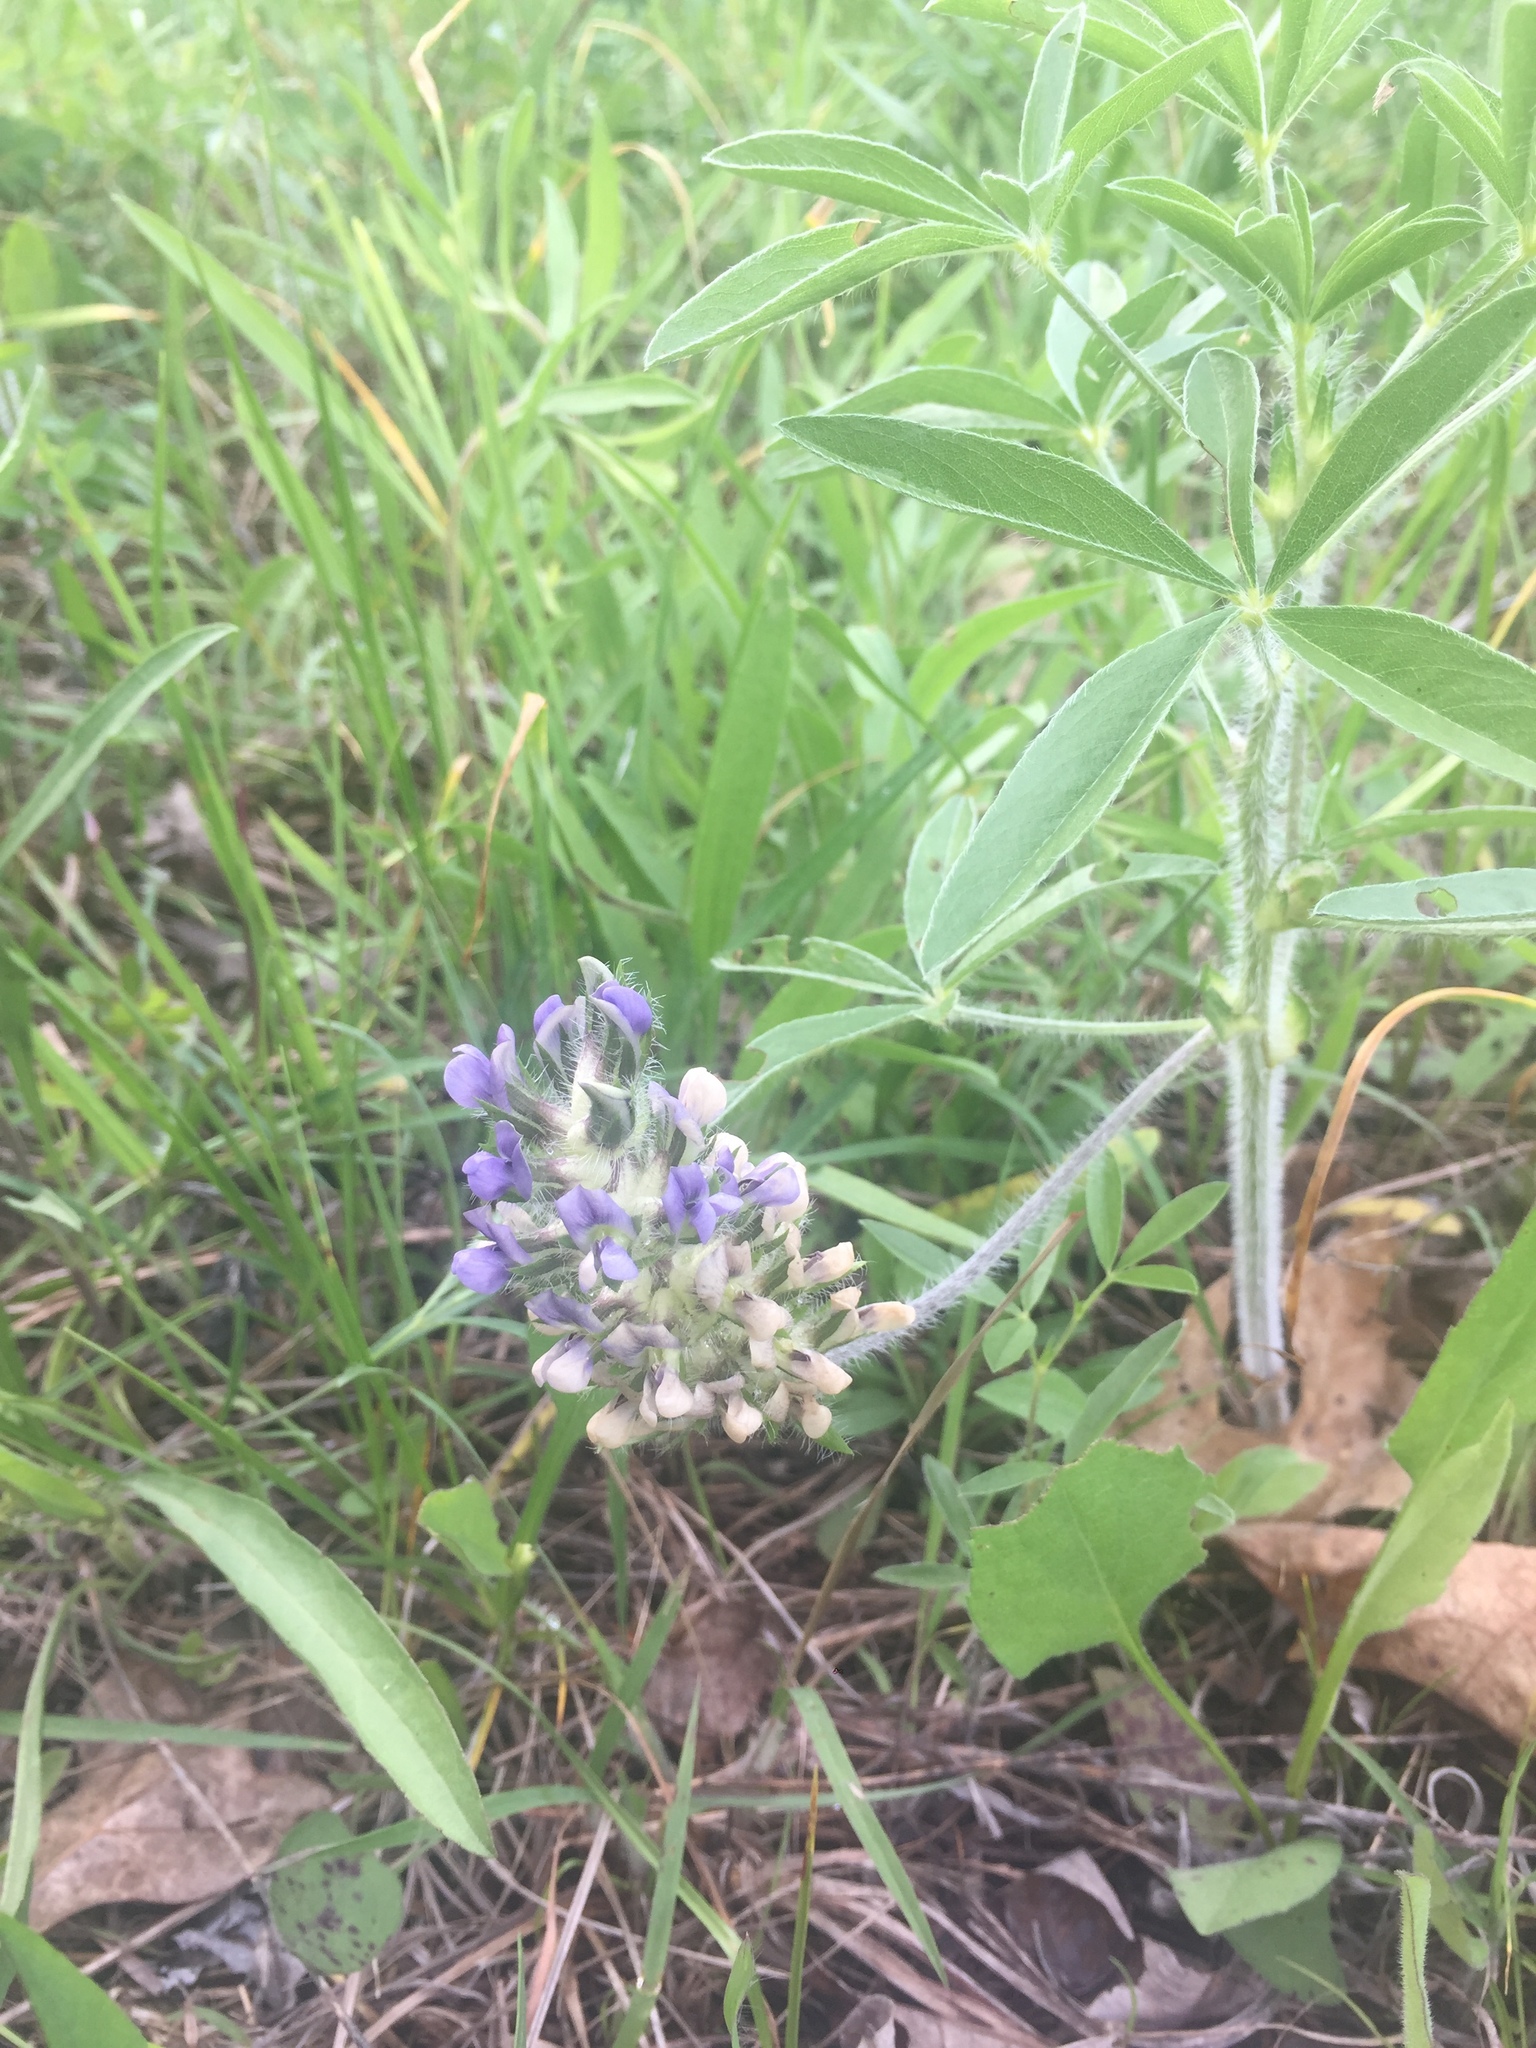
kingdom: Plantae
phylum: Tracheophyta
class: Magnoliopsida
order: Fabales
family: Fabaceae
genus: Pediomelum
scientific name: Pediomelum esculentum
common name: Indian-turnip
